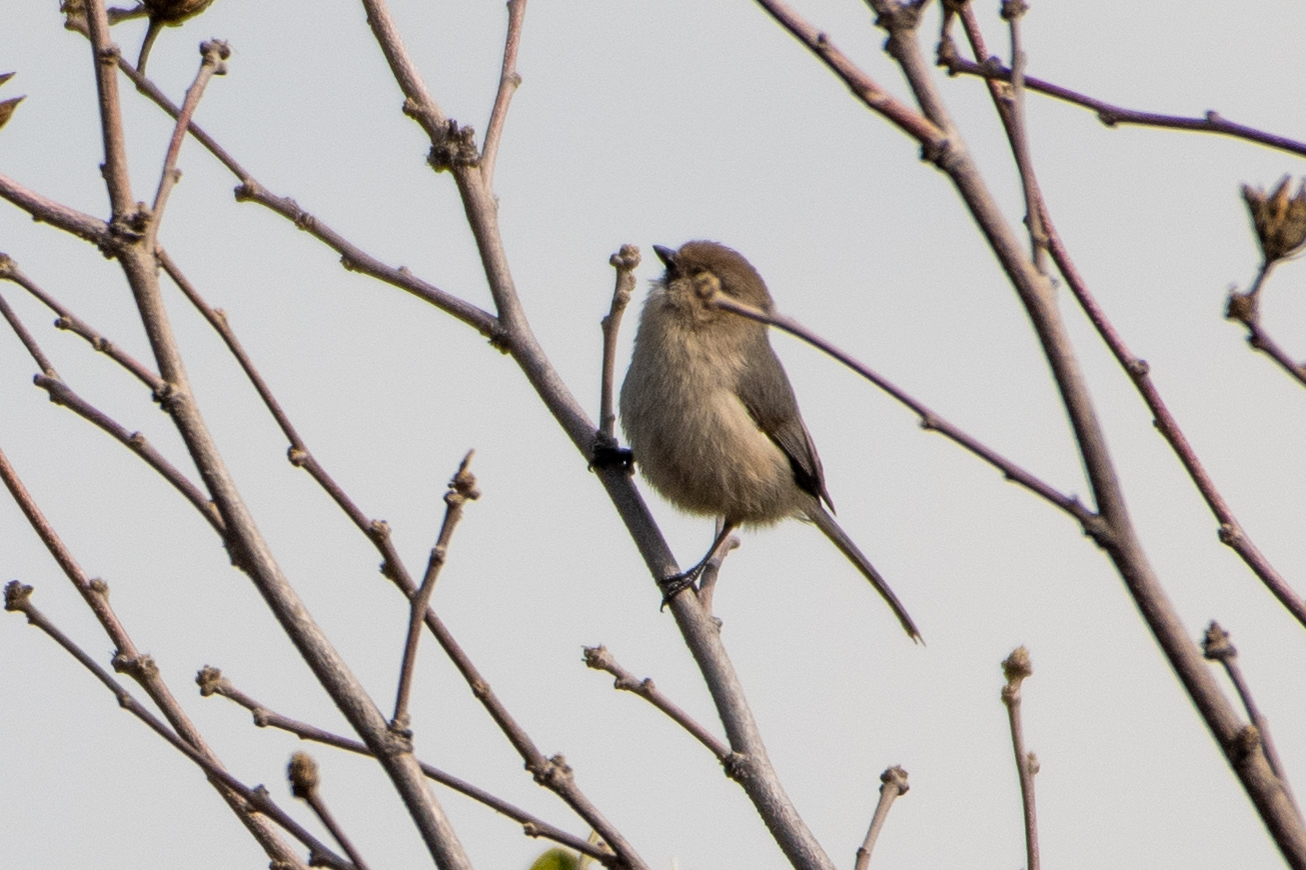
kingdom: Animalia
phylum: Chordata
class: Aves
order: Passeriformes
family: Aegithalidae
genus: Psaltriparus
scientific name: Psaltriparus minimus
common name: American bushtit
